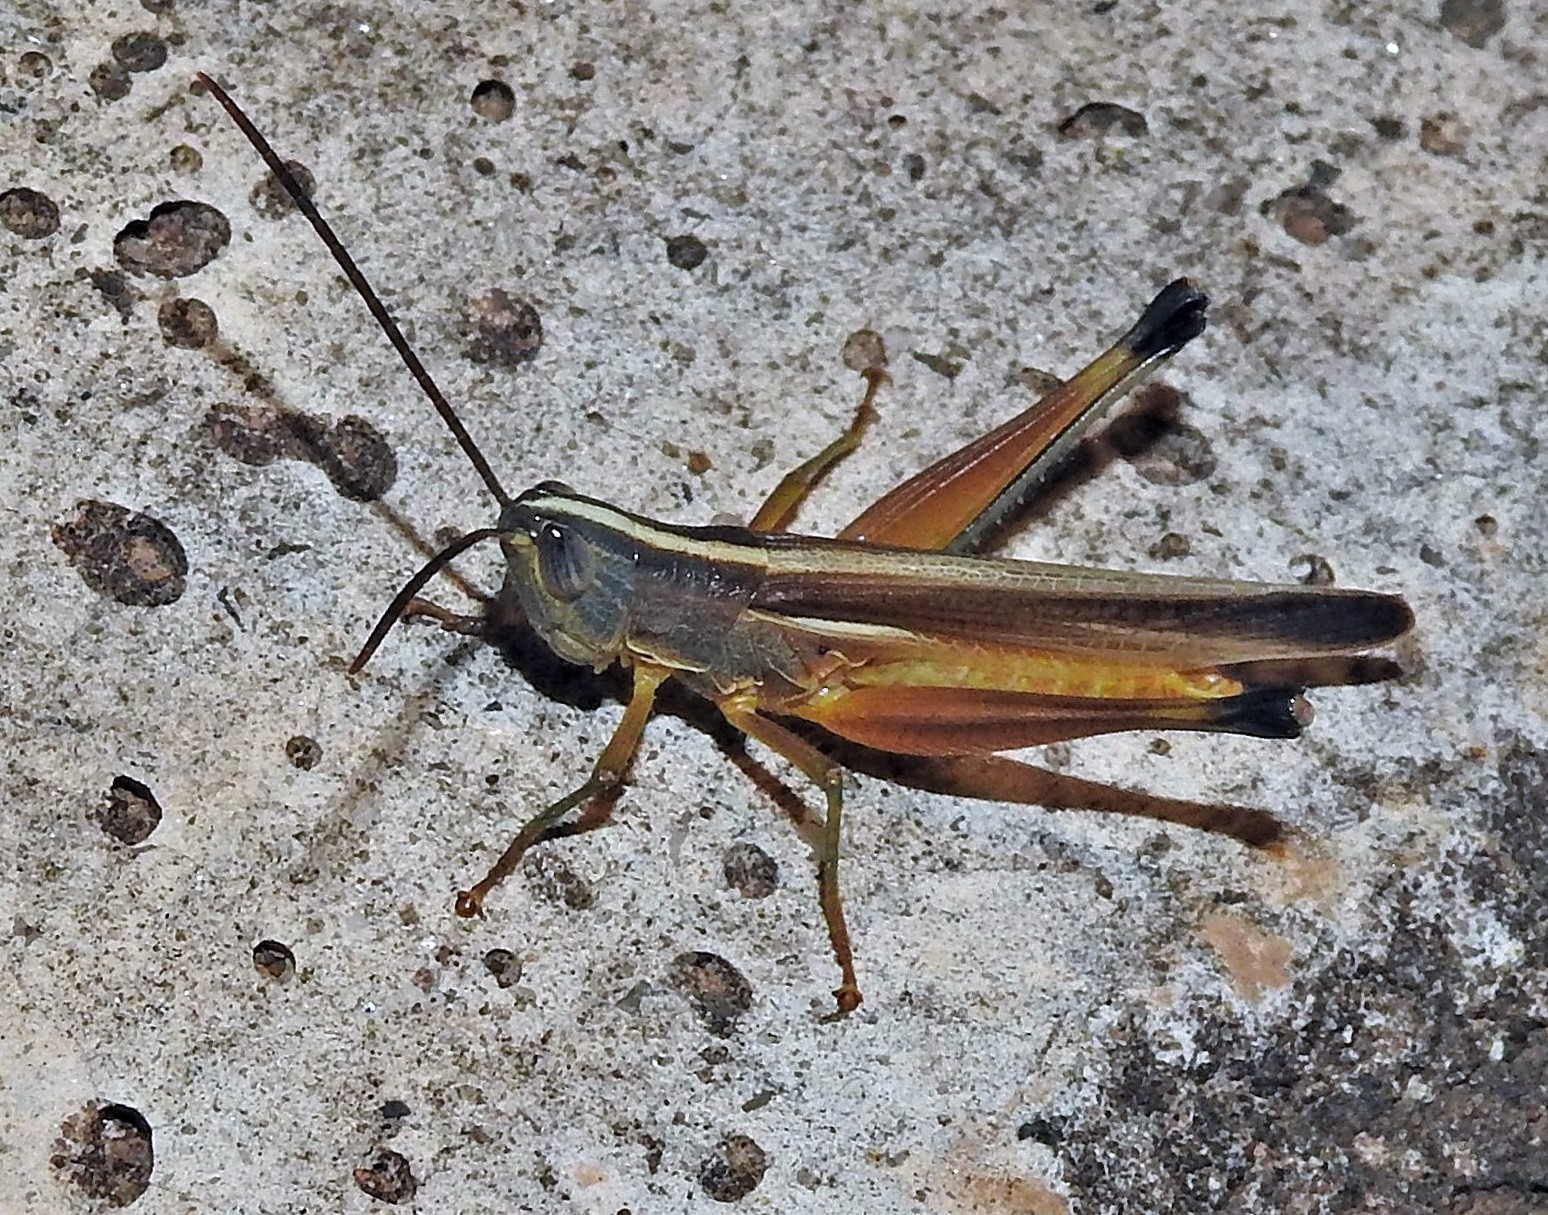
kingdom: Animalia
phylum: Arthropoda
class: Insecta
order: Orthoptera
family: Acrididae
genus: Staurorhectus
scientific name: Staurorhectus longicornis
